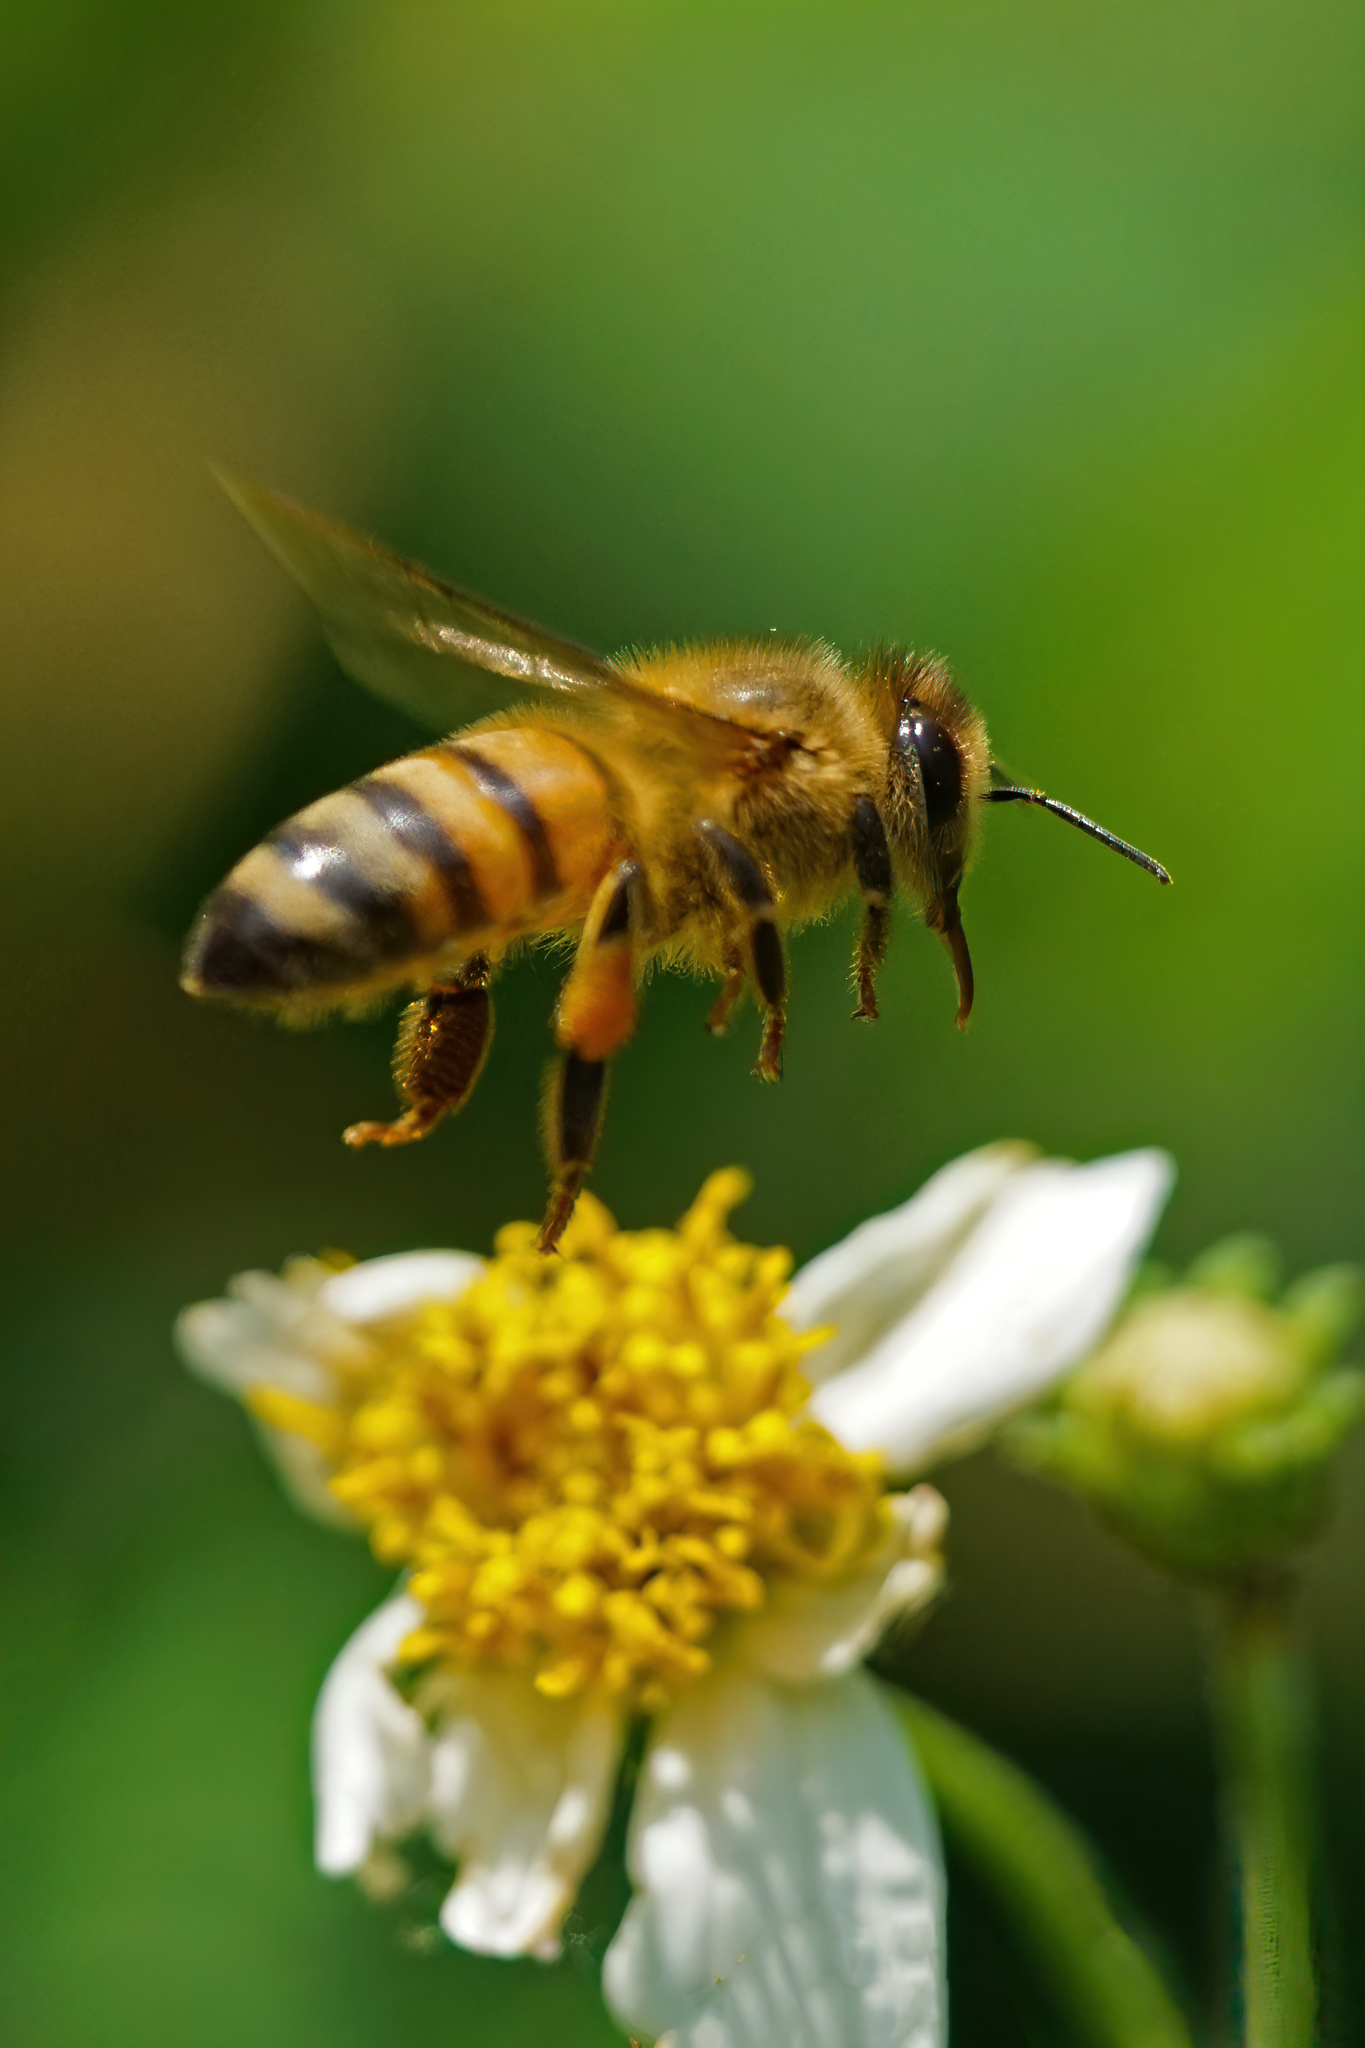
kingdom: Animalia
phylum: Arthropoda
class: Insecta
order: Hymenoptera
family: Apidae
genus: Apis
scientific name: Apis mellifera
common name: Honey bee
